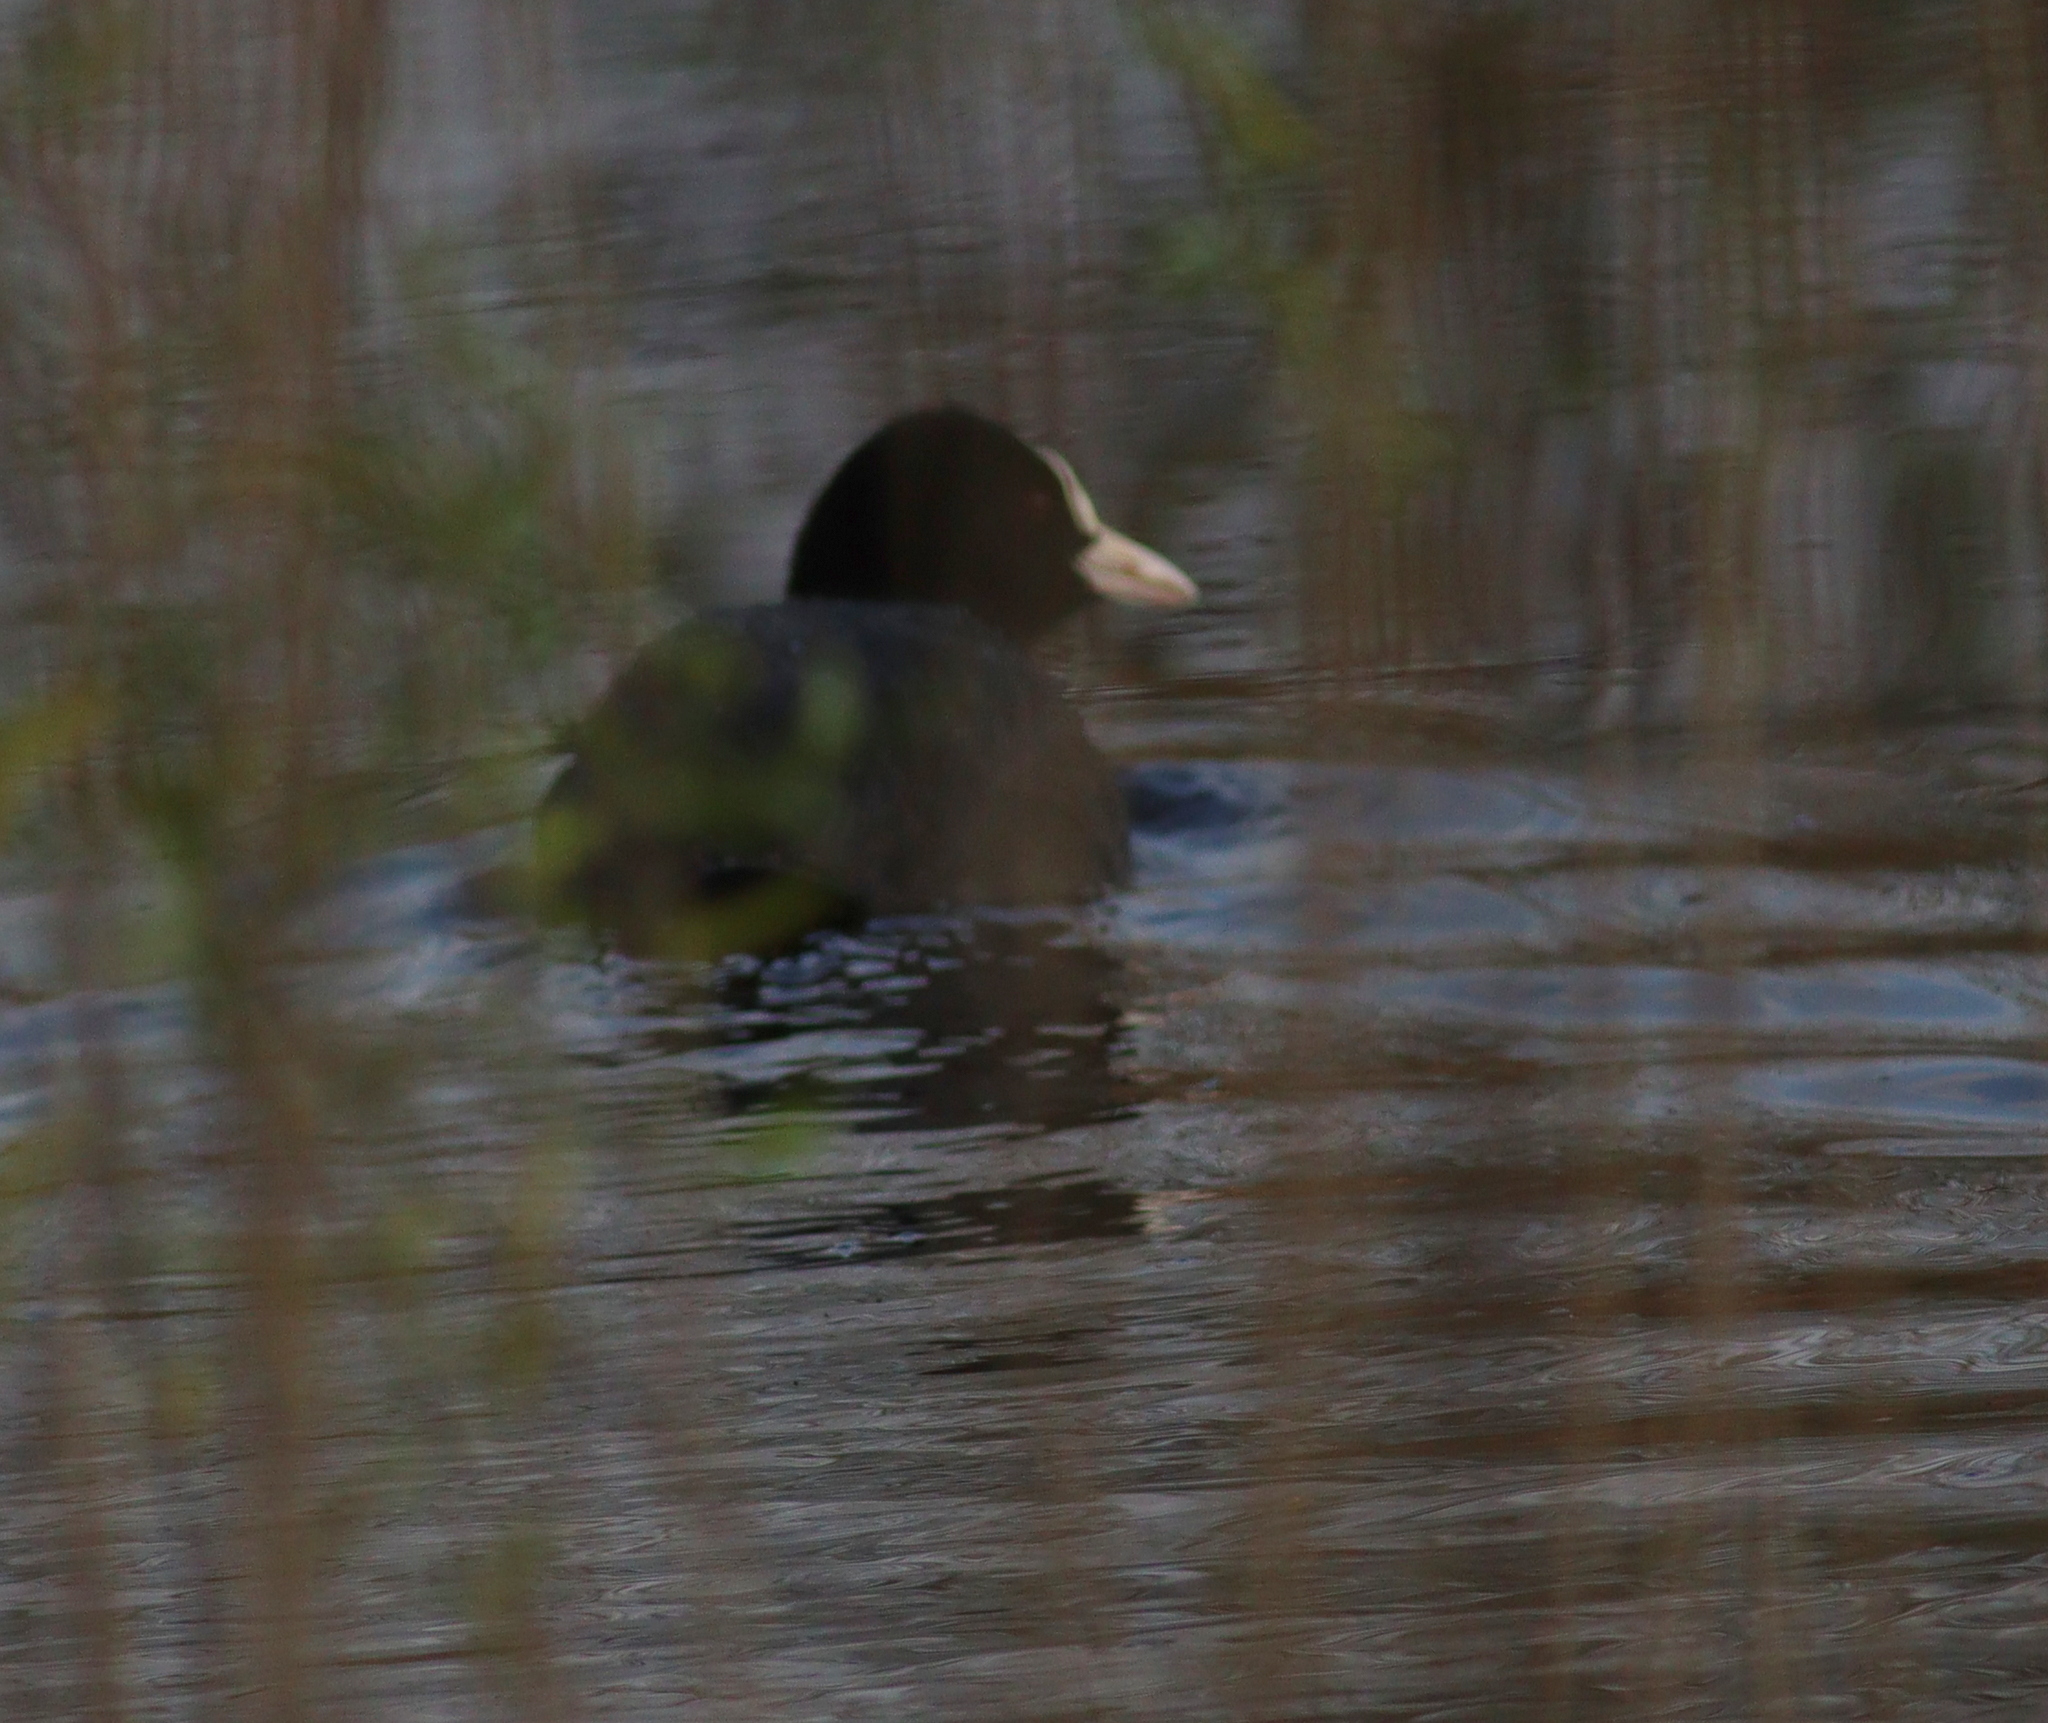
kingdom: Animalia
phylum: Chordata
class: Aves
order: Gruiformes
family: Rallidae
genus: Fulica
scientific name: Fulica atra
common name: Eurasian coot
